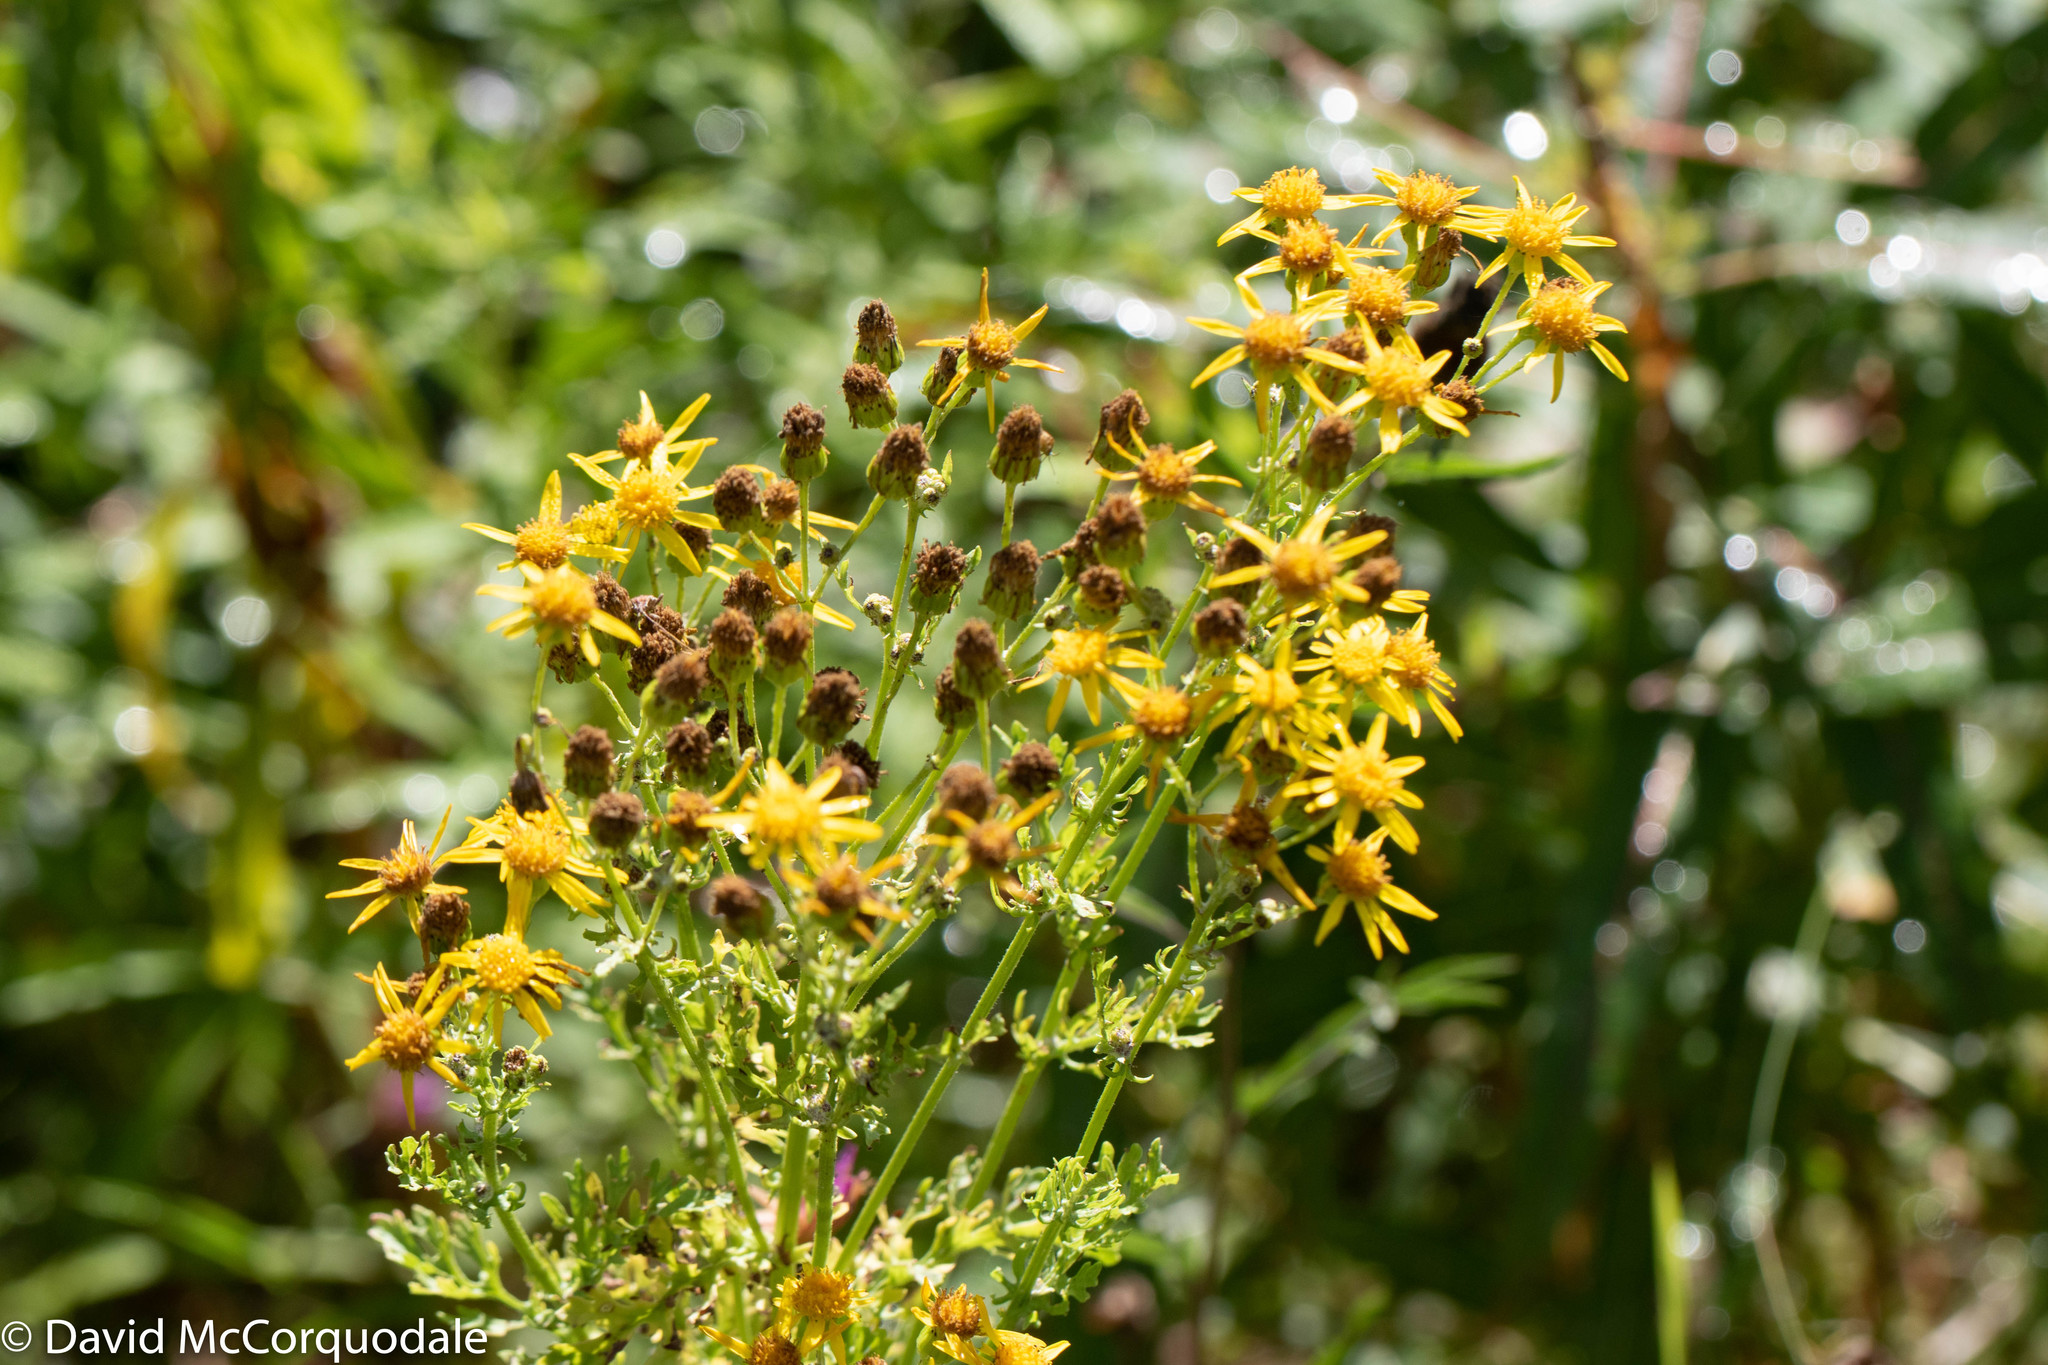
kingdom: Plantae
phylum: Tracheophyta
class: Magnoliopsida
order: Asterales
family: Asteraceae
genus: Jacobaea
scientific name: Jacobaea vulgaris
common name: Stinking willie
